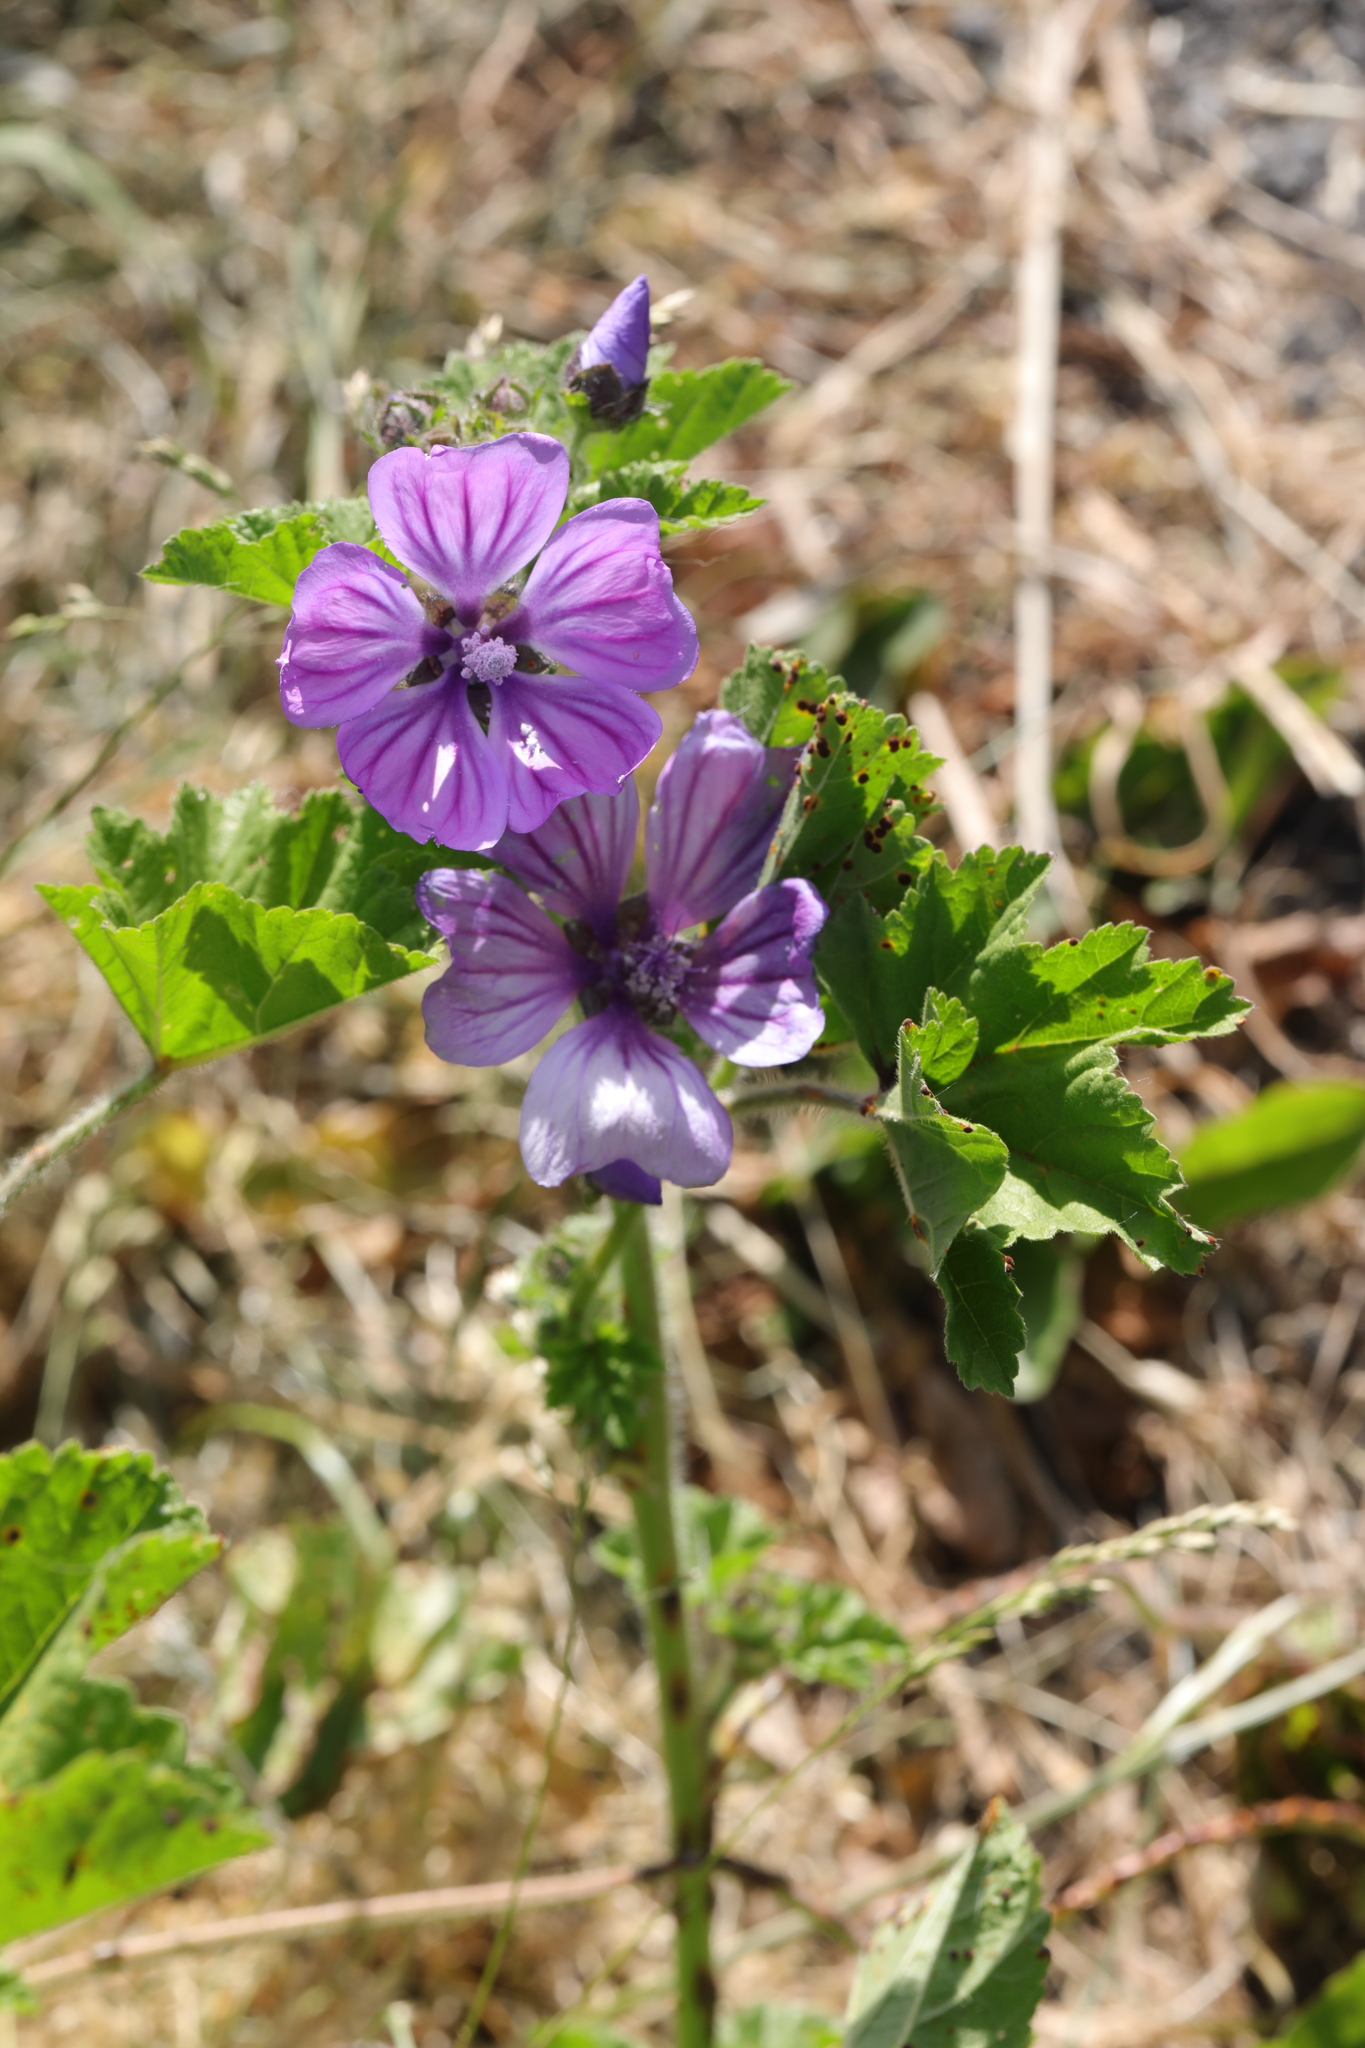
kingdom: Plantae
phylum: Tracheophyta
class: Magnoliopsida
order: Malvales
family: Malvaceae
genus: Malva
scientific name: Malva sylvestris
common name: Common mallow
